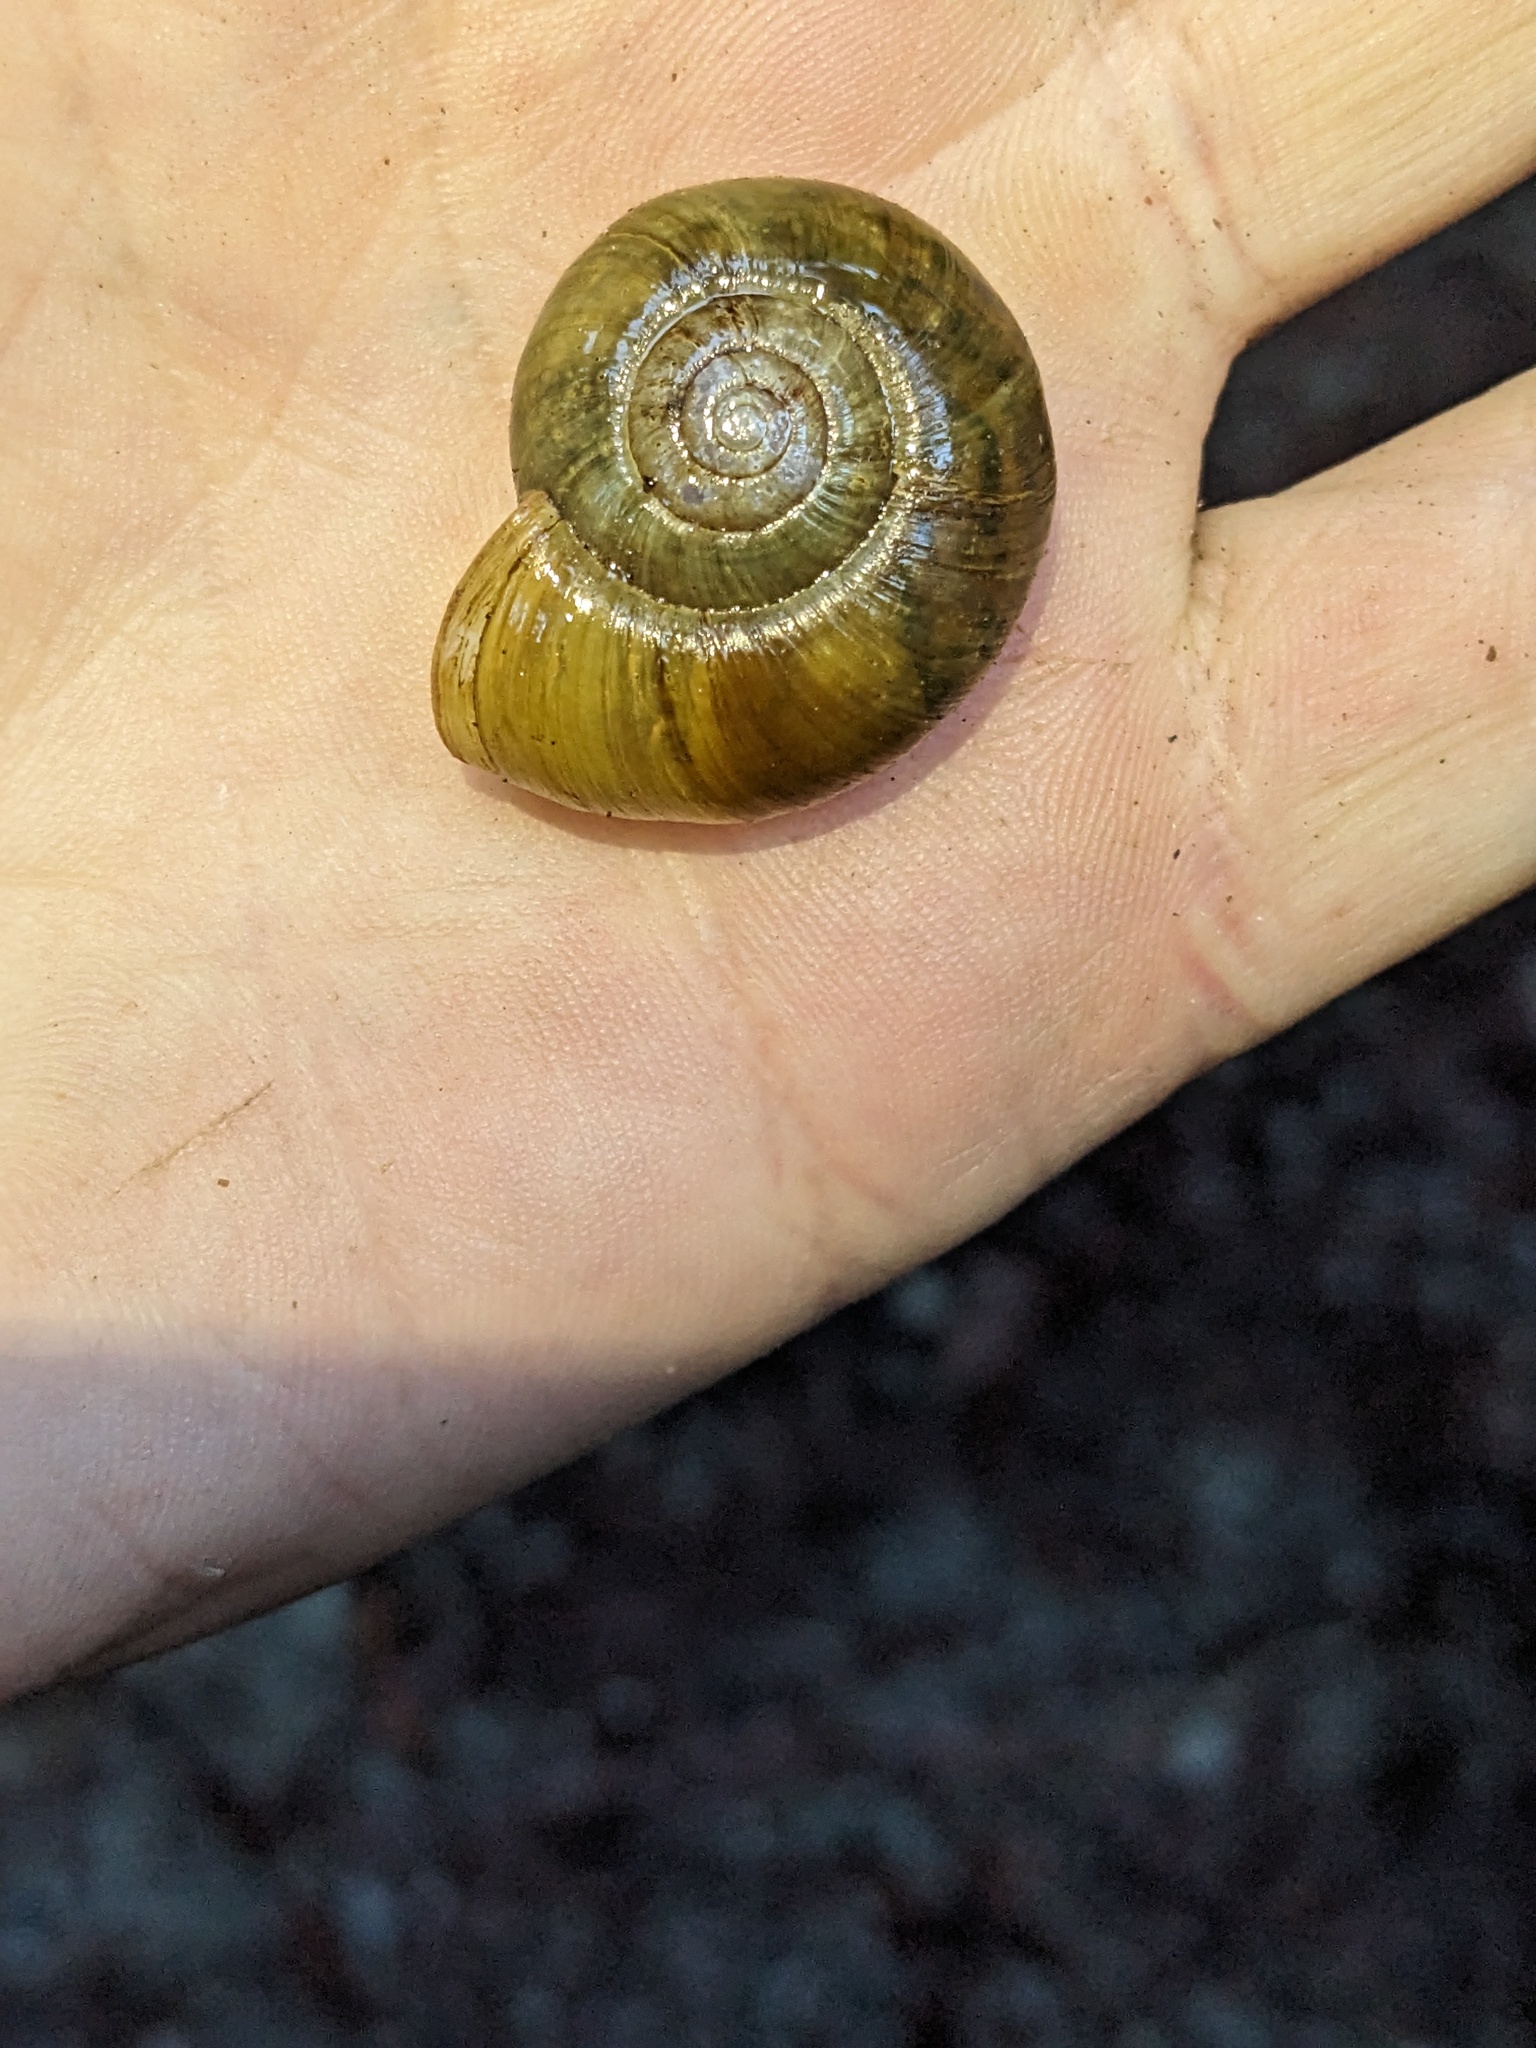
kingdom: Animalia
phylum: Mollusca
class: Gastropoda
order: Stylommatophora
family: Haplotrematidae
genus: Haplotrema
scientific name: Haplotrema vancouverense
